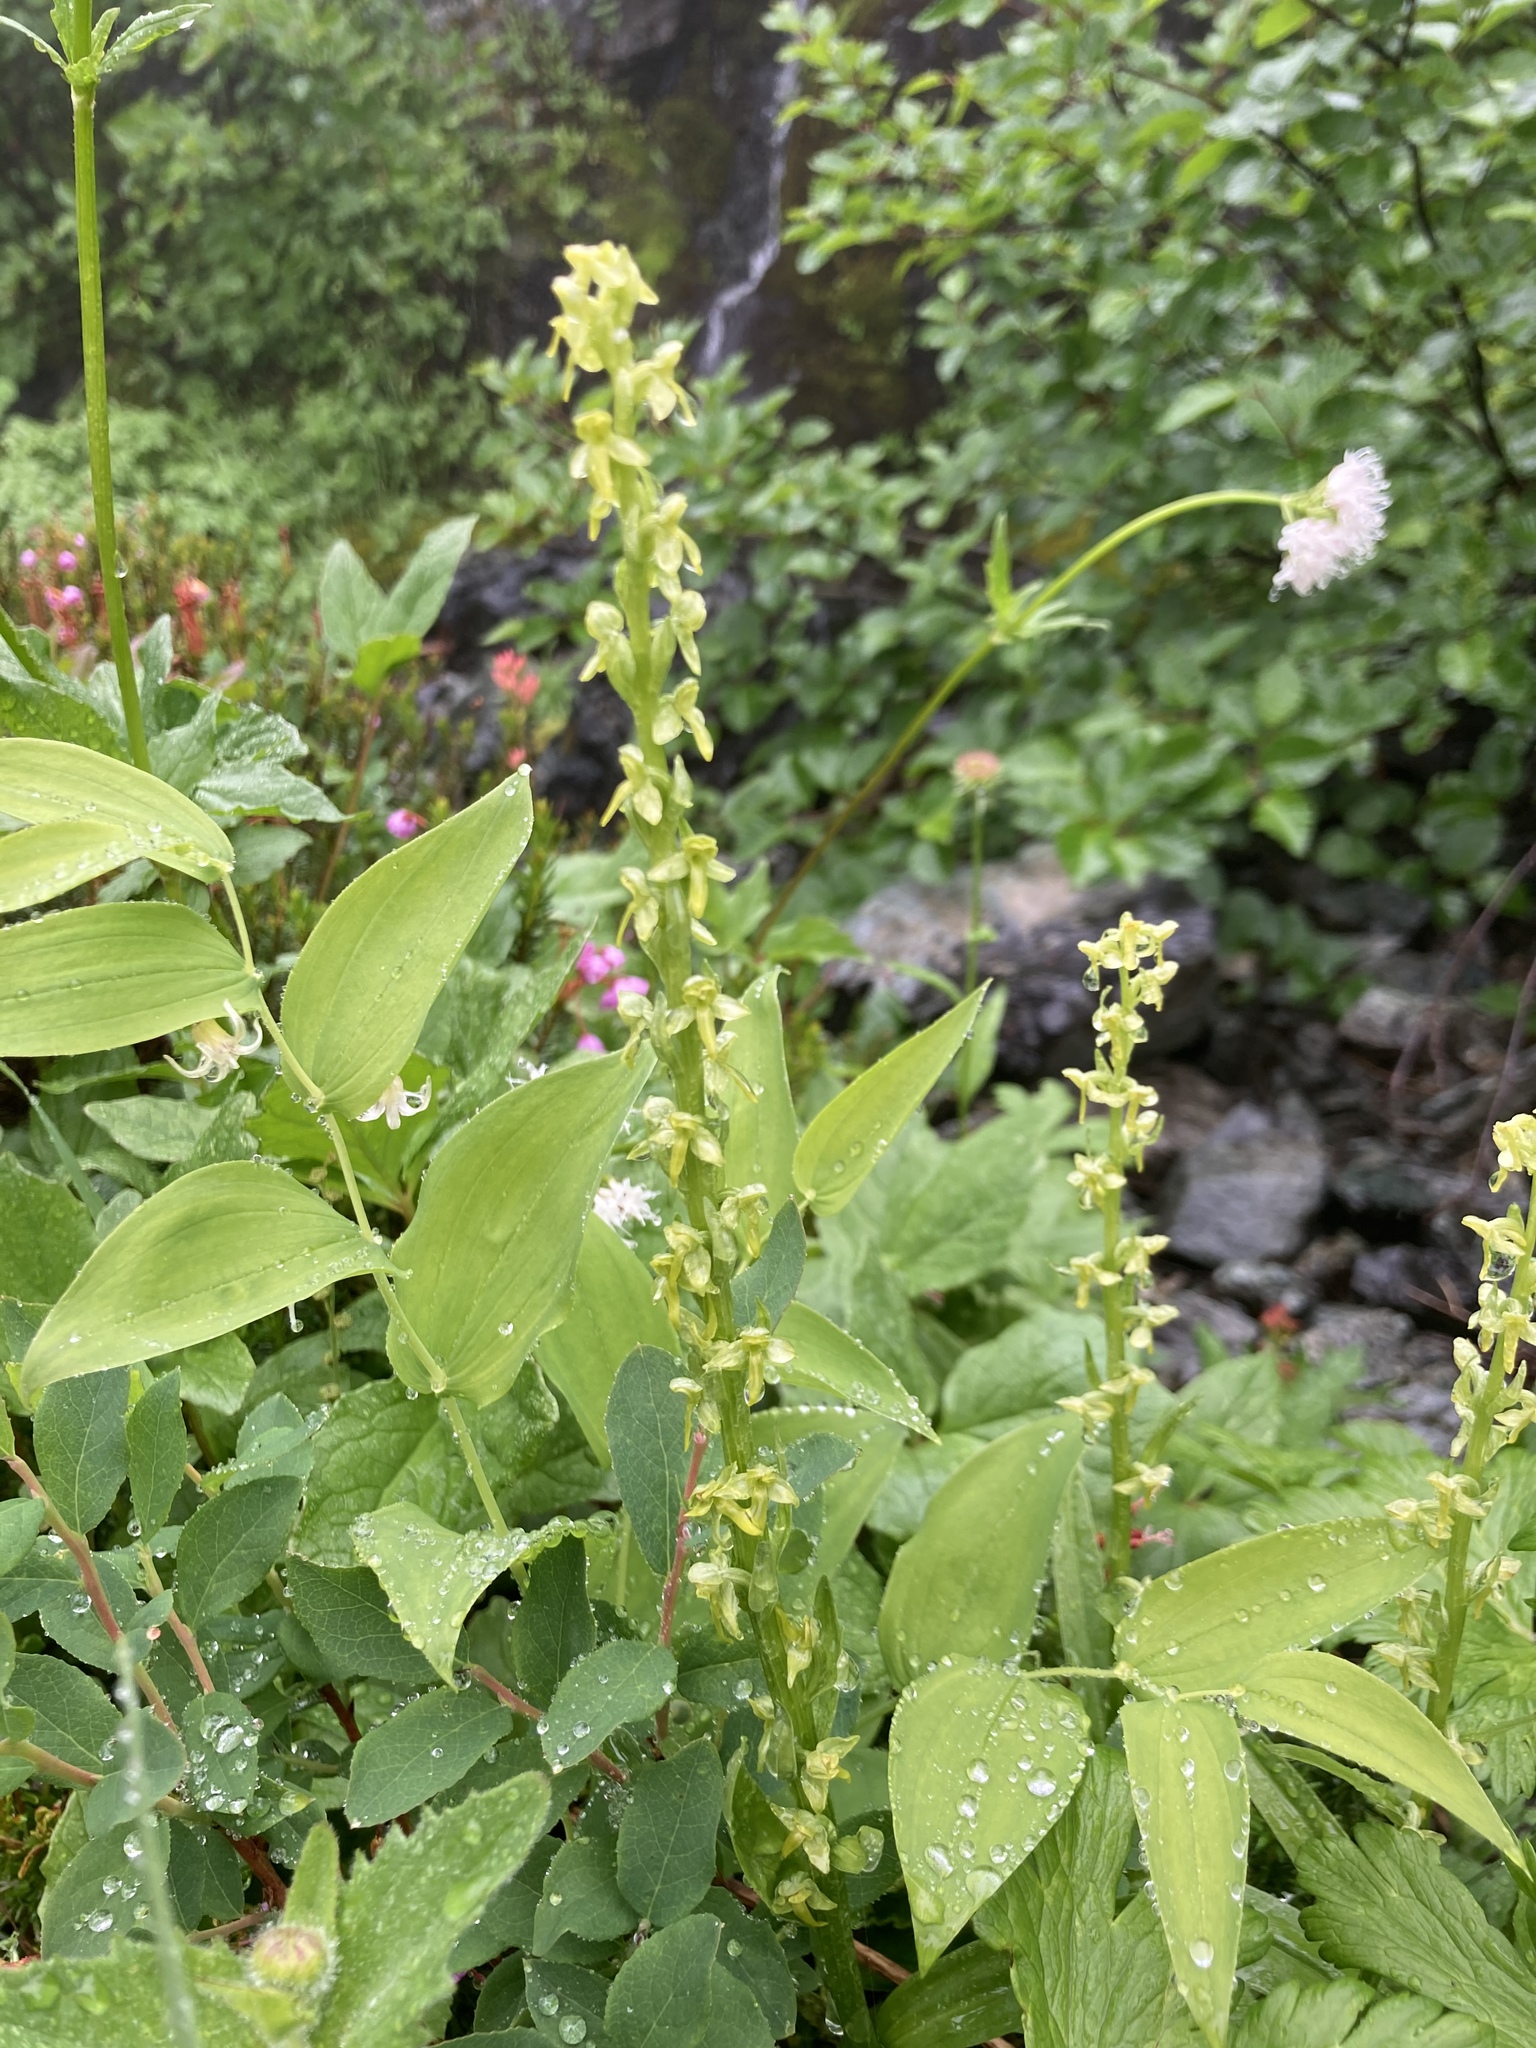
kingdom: Plantae
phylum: Tracheophyta
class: Liliopsida
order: Asparagales
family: Orchidaceae
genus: Platanthera
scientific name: Platanthera stricta
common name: Slender bog orchid
